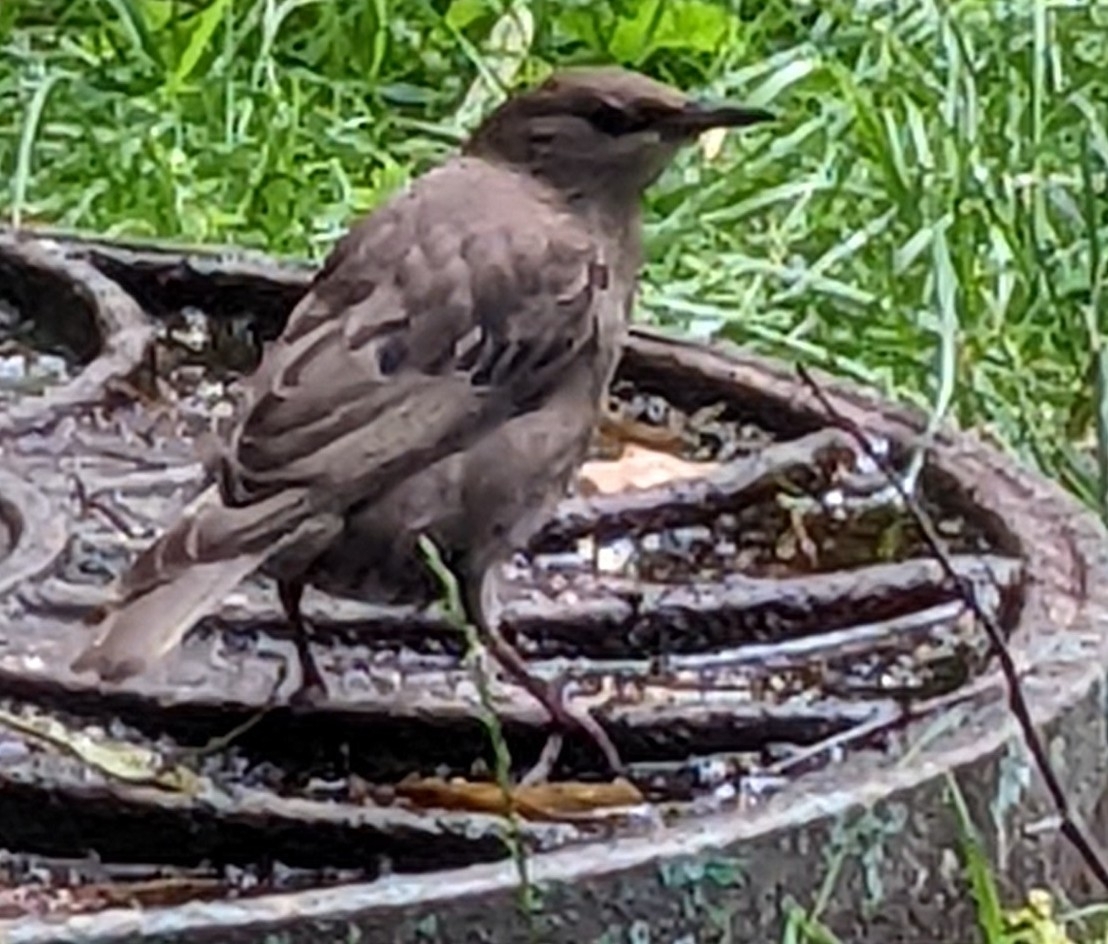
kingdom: Animalia
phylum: Chordata
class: Aves
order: Passeriformes
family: Sturnidae
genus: Sturnus
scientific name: Sturnus vulgaris
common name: Common starling
